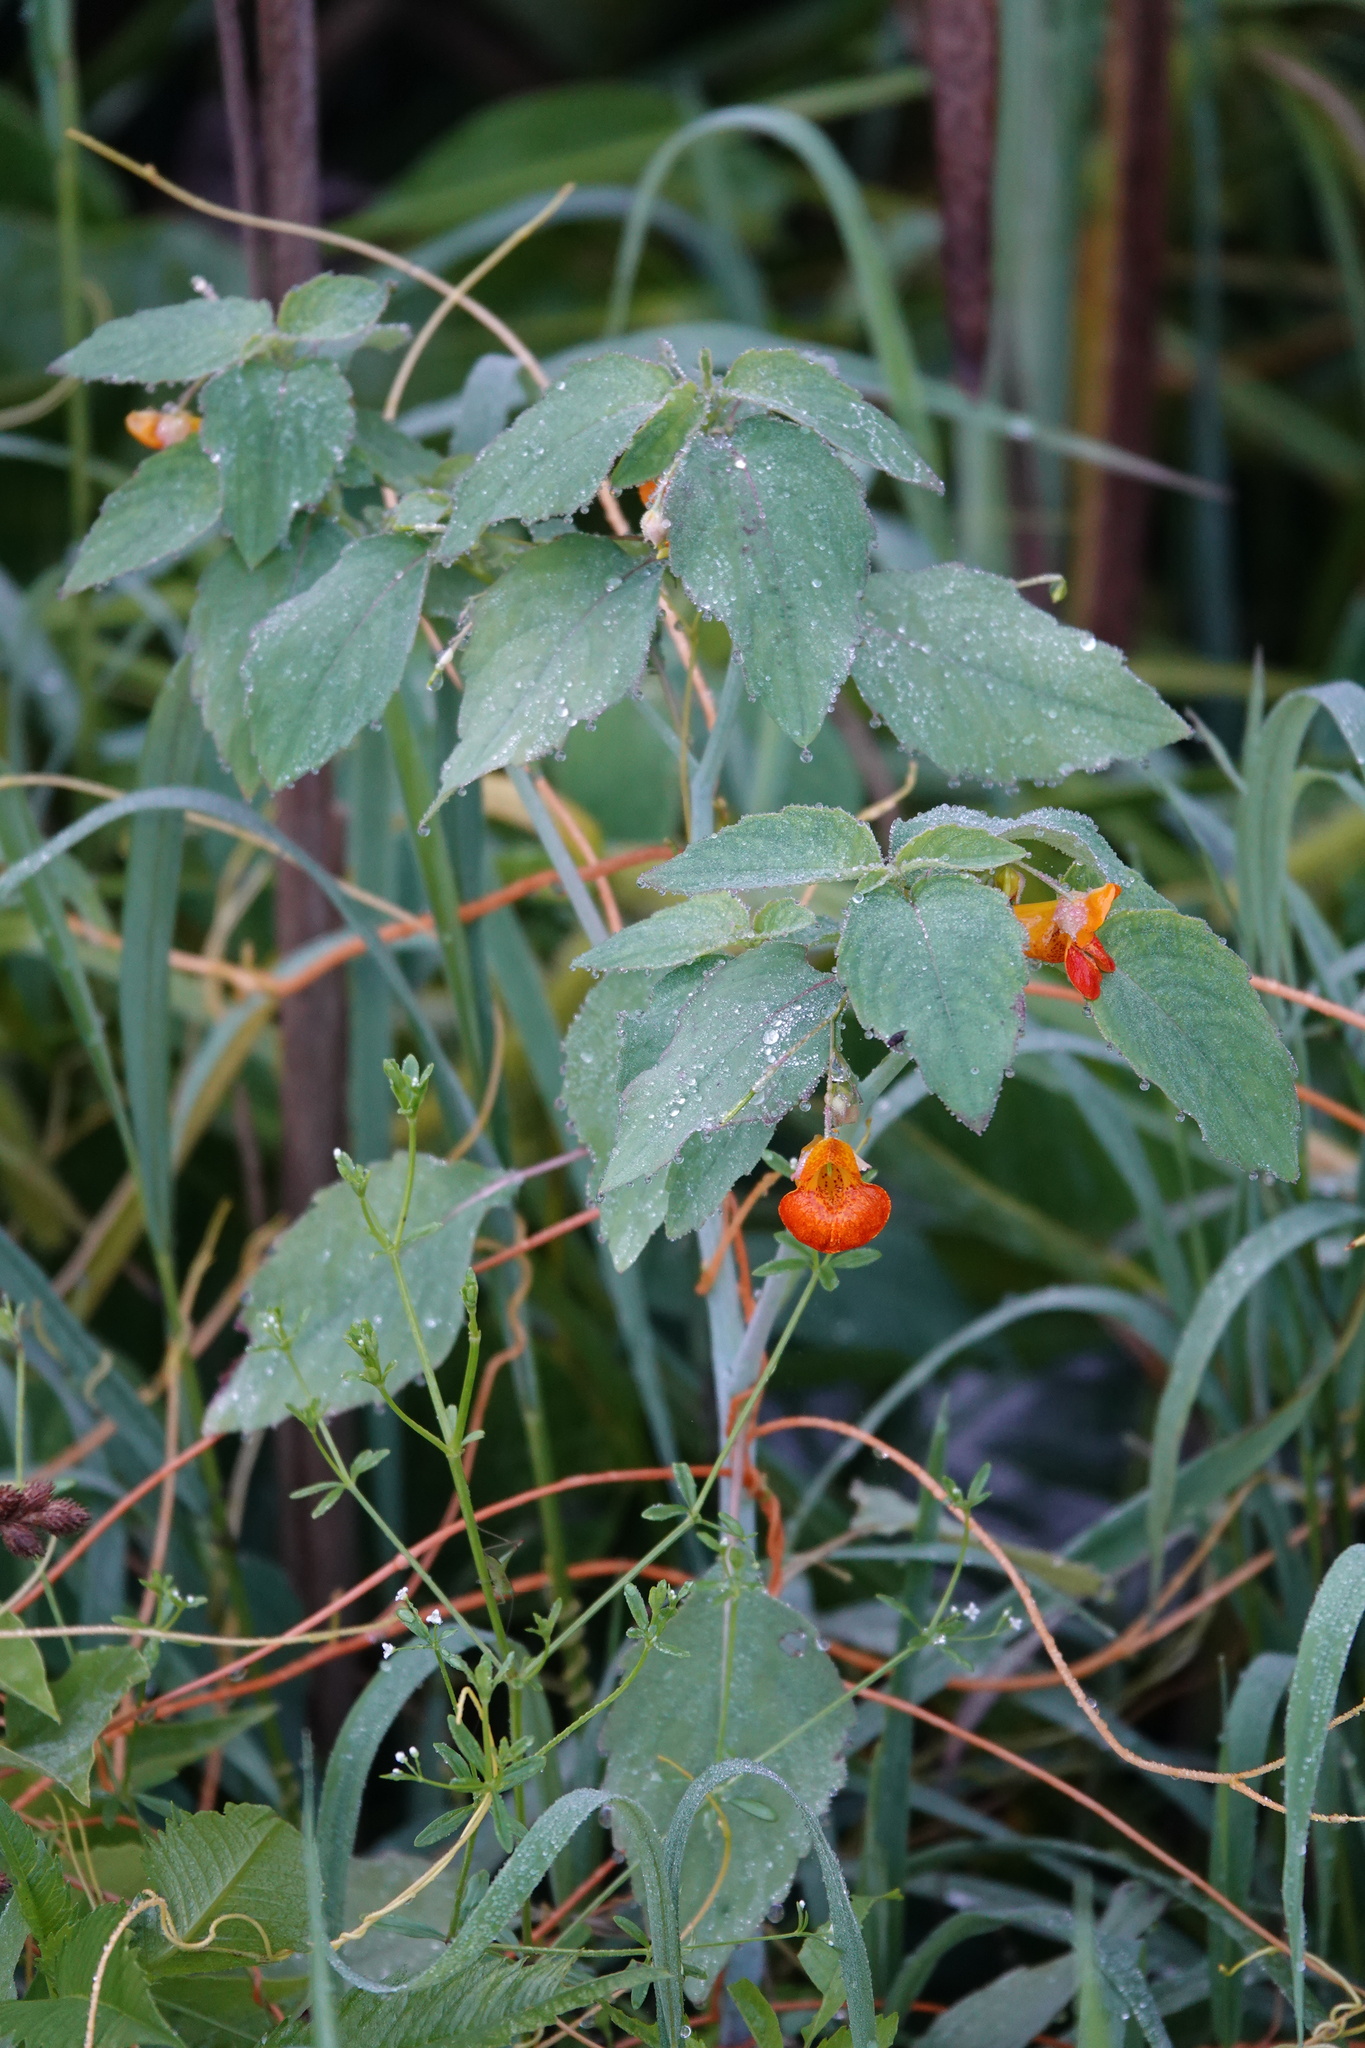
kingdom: Plantae
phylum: Tracheophyta
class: Magnoliopsida
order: Ericales
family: Balsaminaceae
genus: Impatiens
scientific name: Impatiens capensis
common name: Orange balsam
